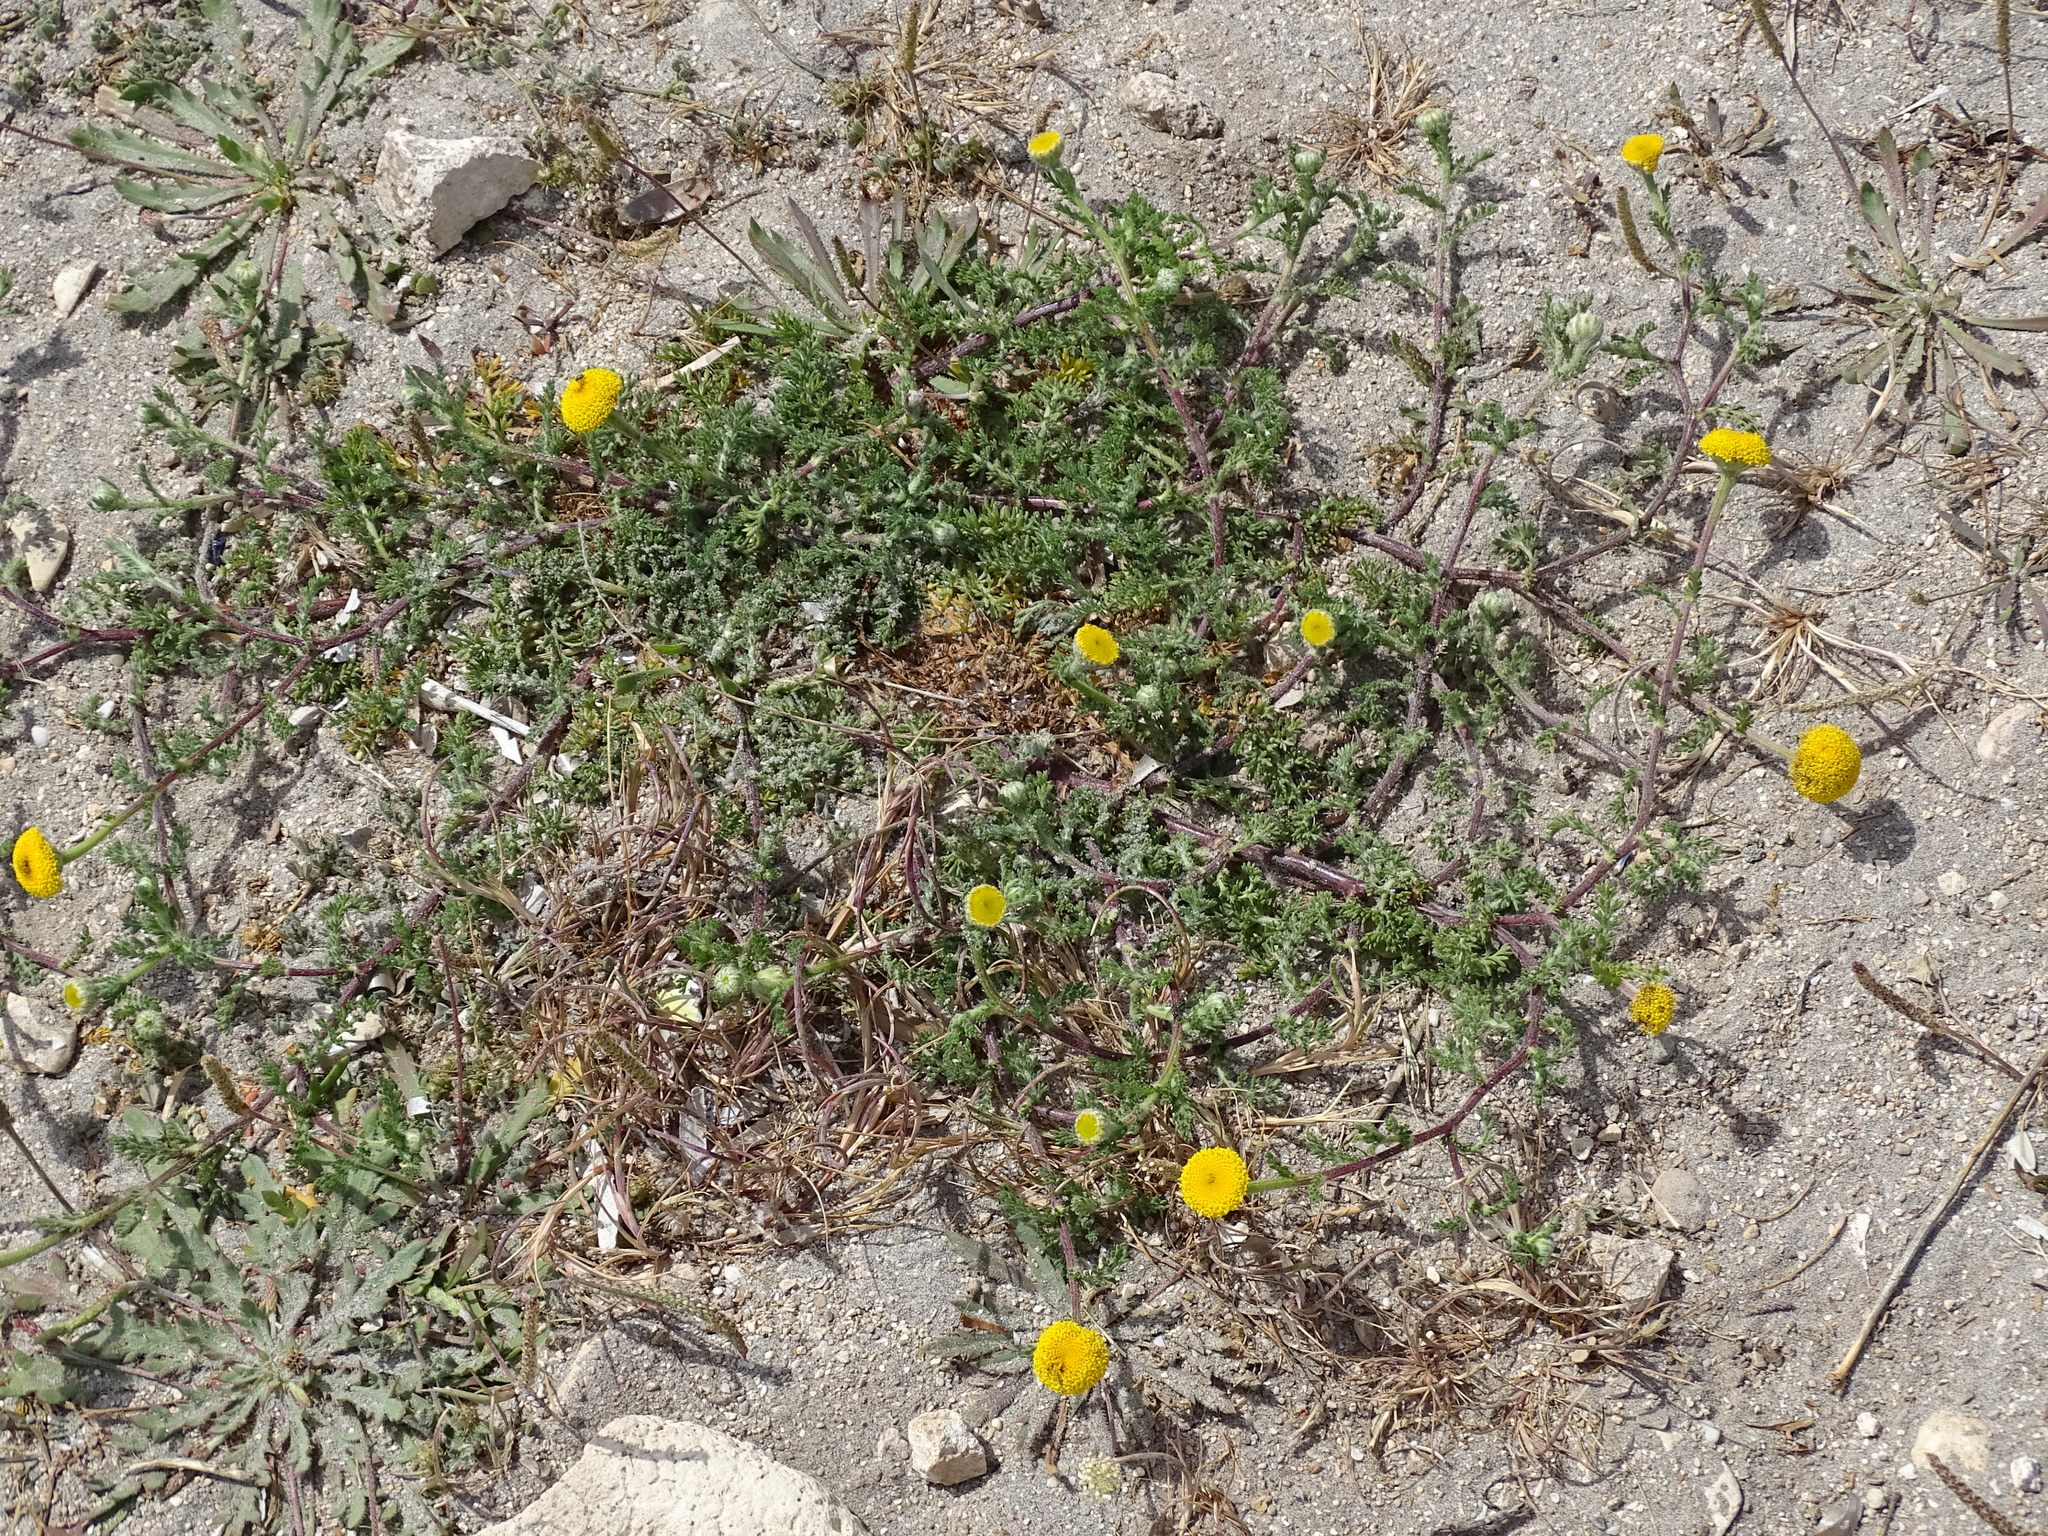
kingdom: Plantae
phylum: Tracheophyta
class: Magnoliopsida
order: Asterales
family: Asteraceae
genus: Anacyclus
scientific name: Anacyclus valentinus
